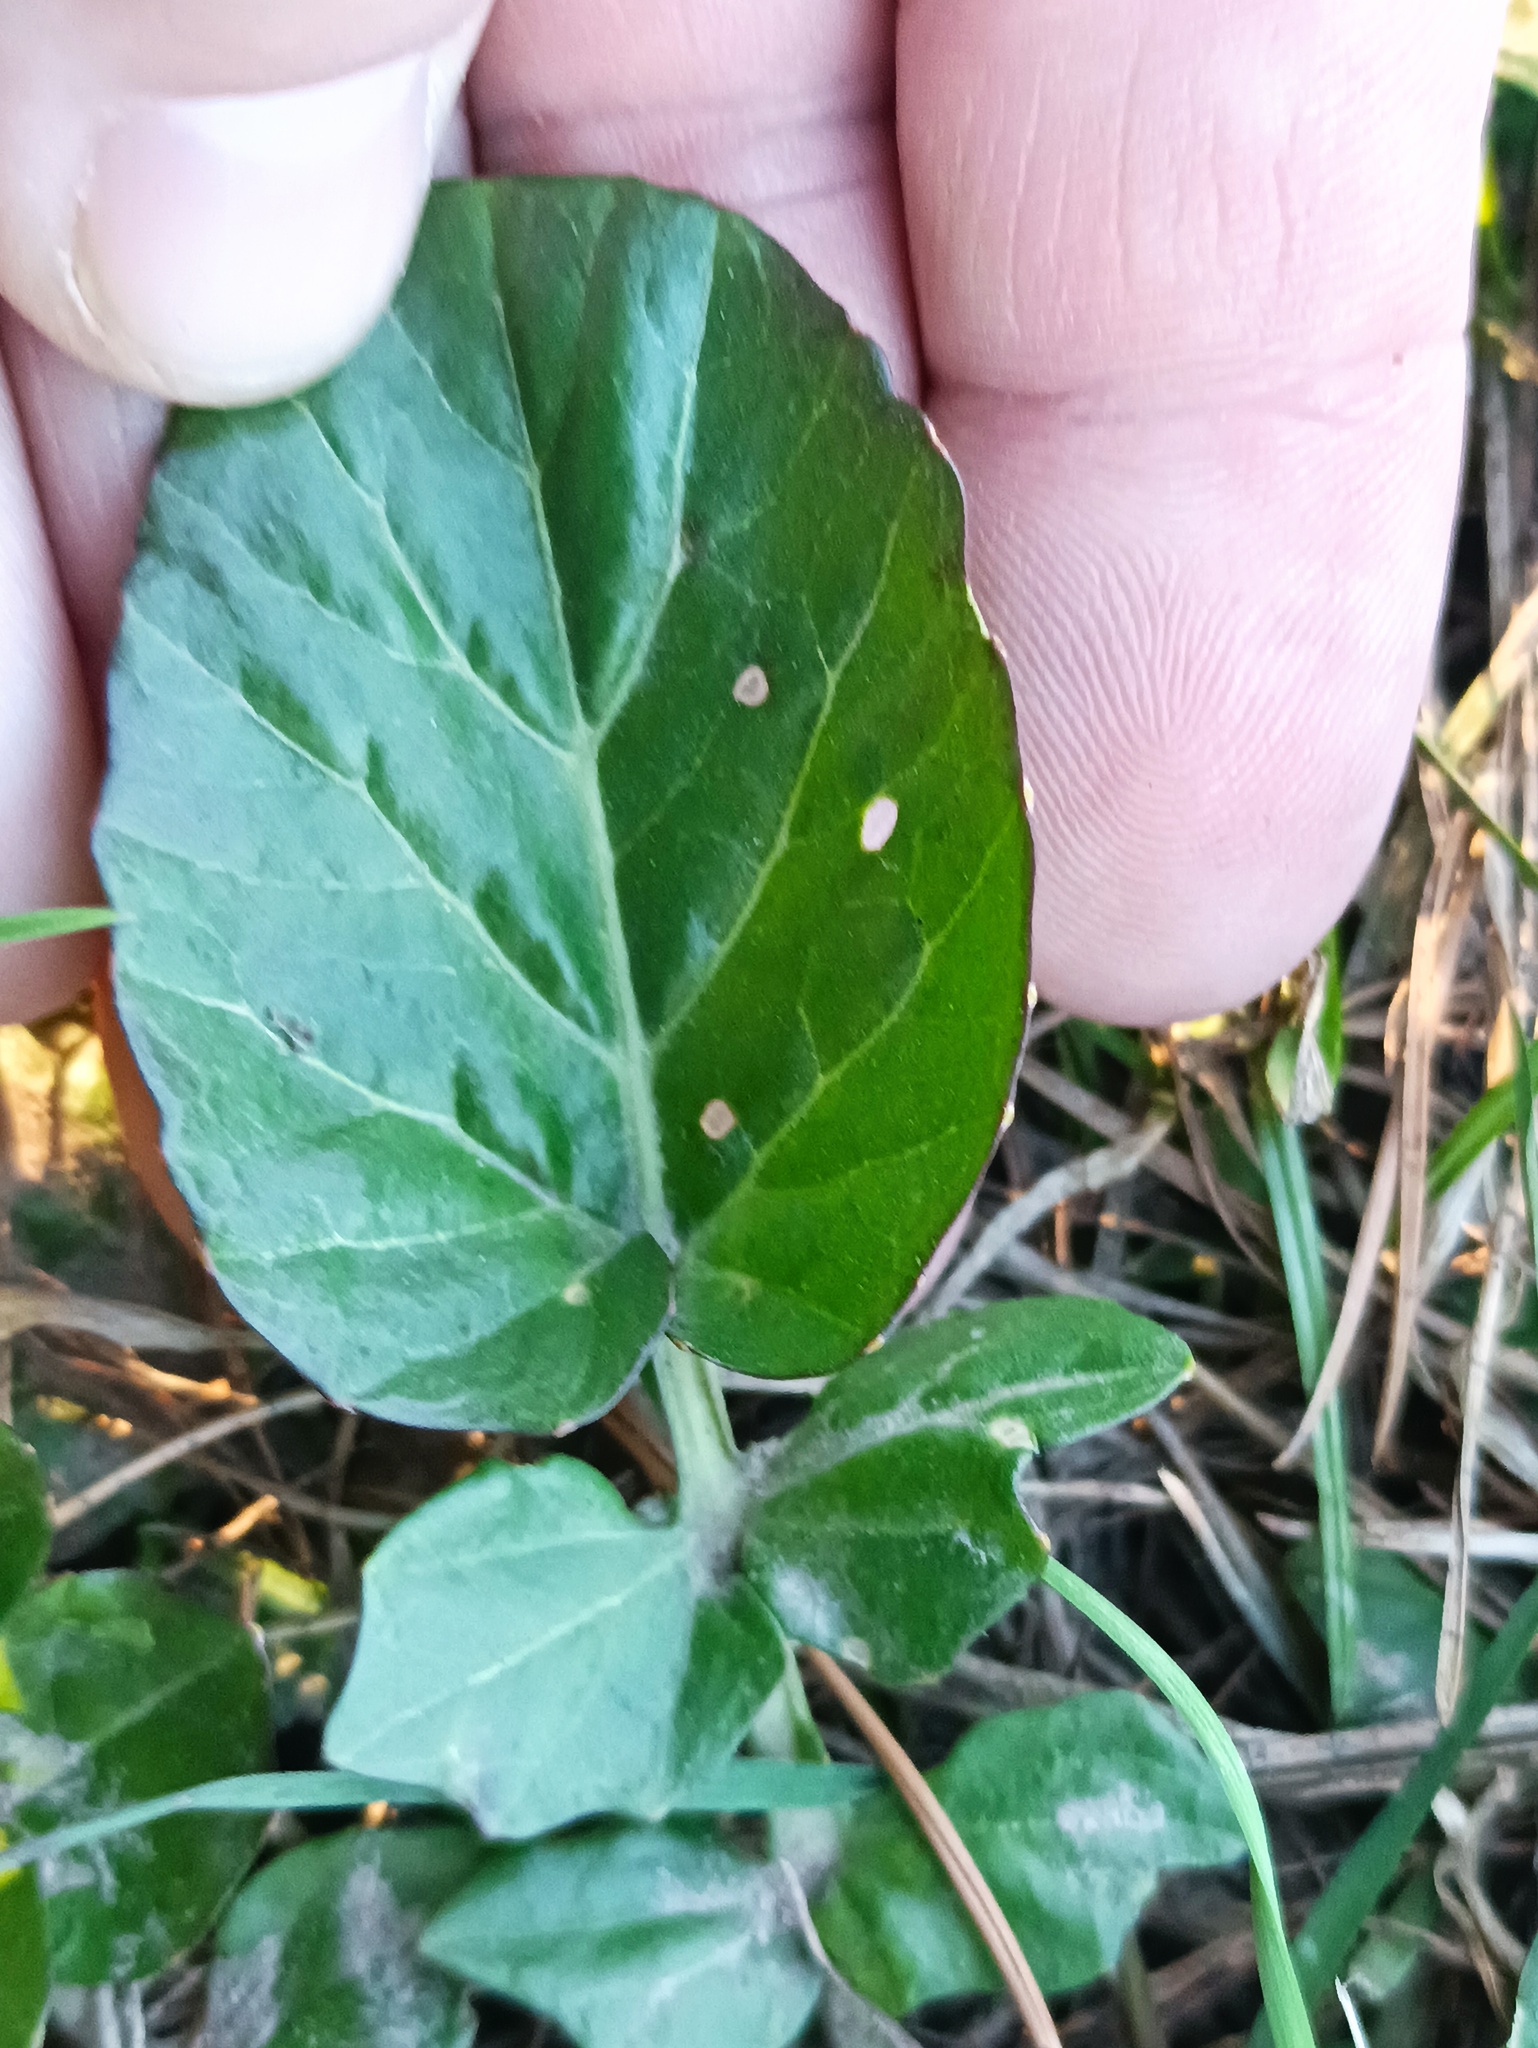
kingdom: Plantae
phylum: Tracheophyta
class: Magnoliopsida
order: Brassicales
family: Brassicaceae
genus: Barbarea
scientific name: Barbarea vulgaris
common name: Cressy-greens
